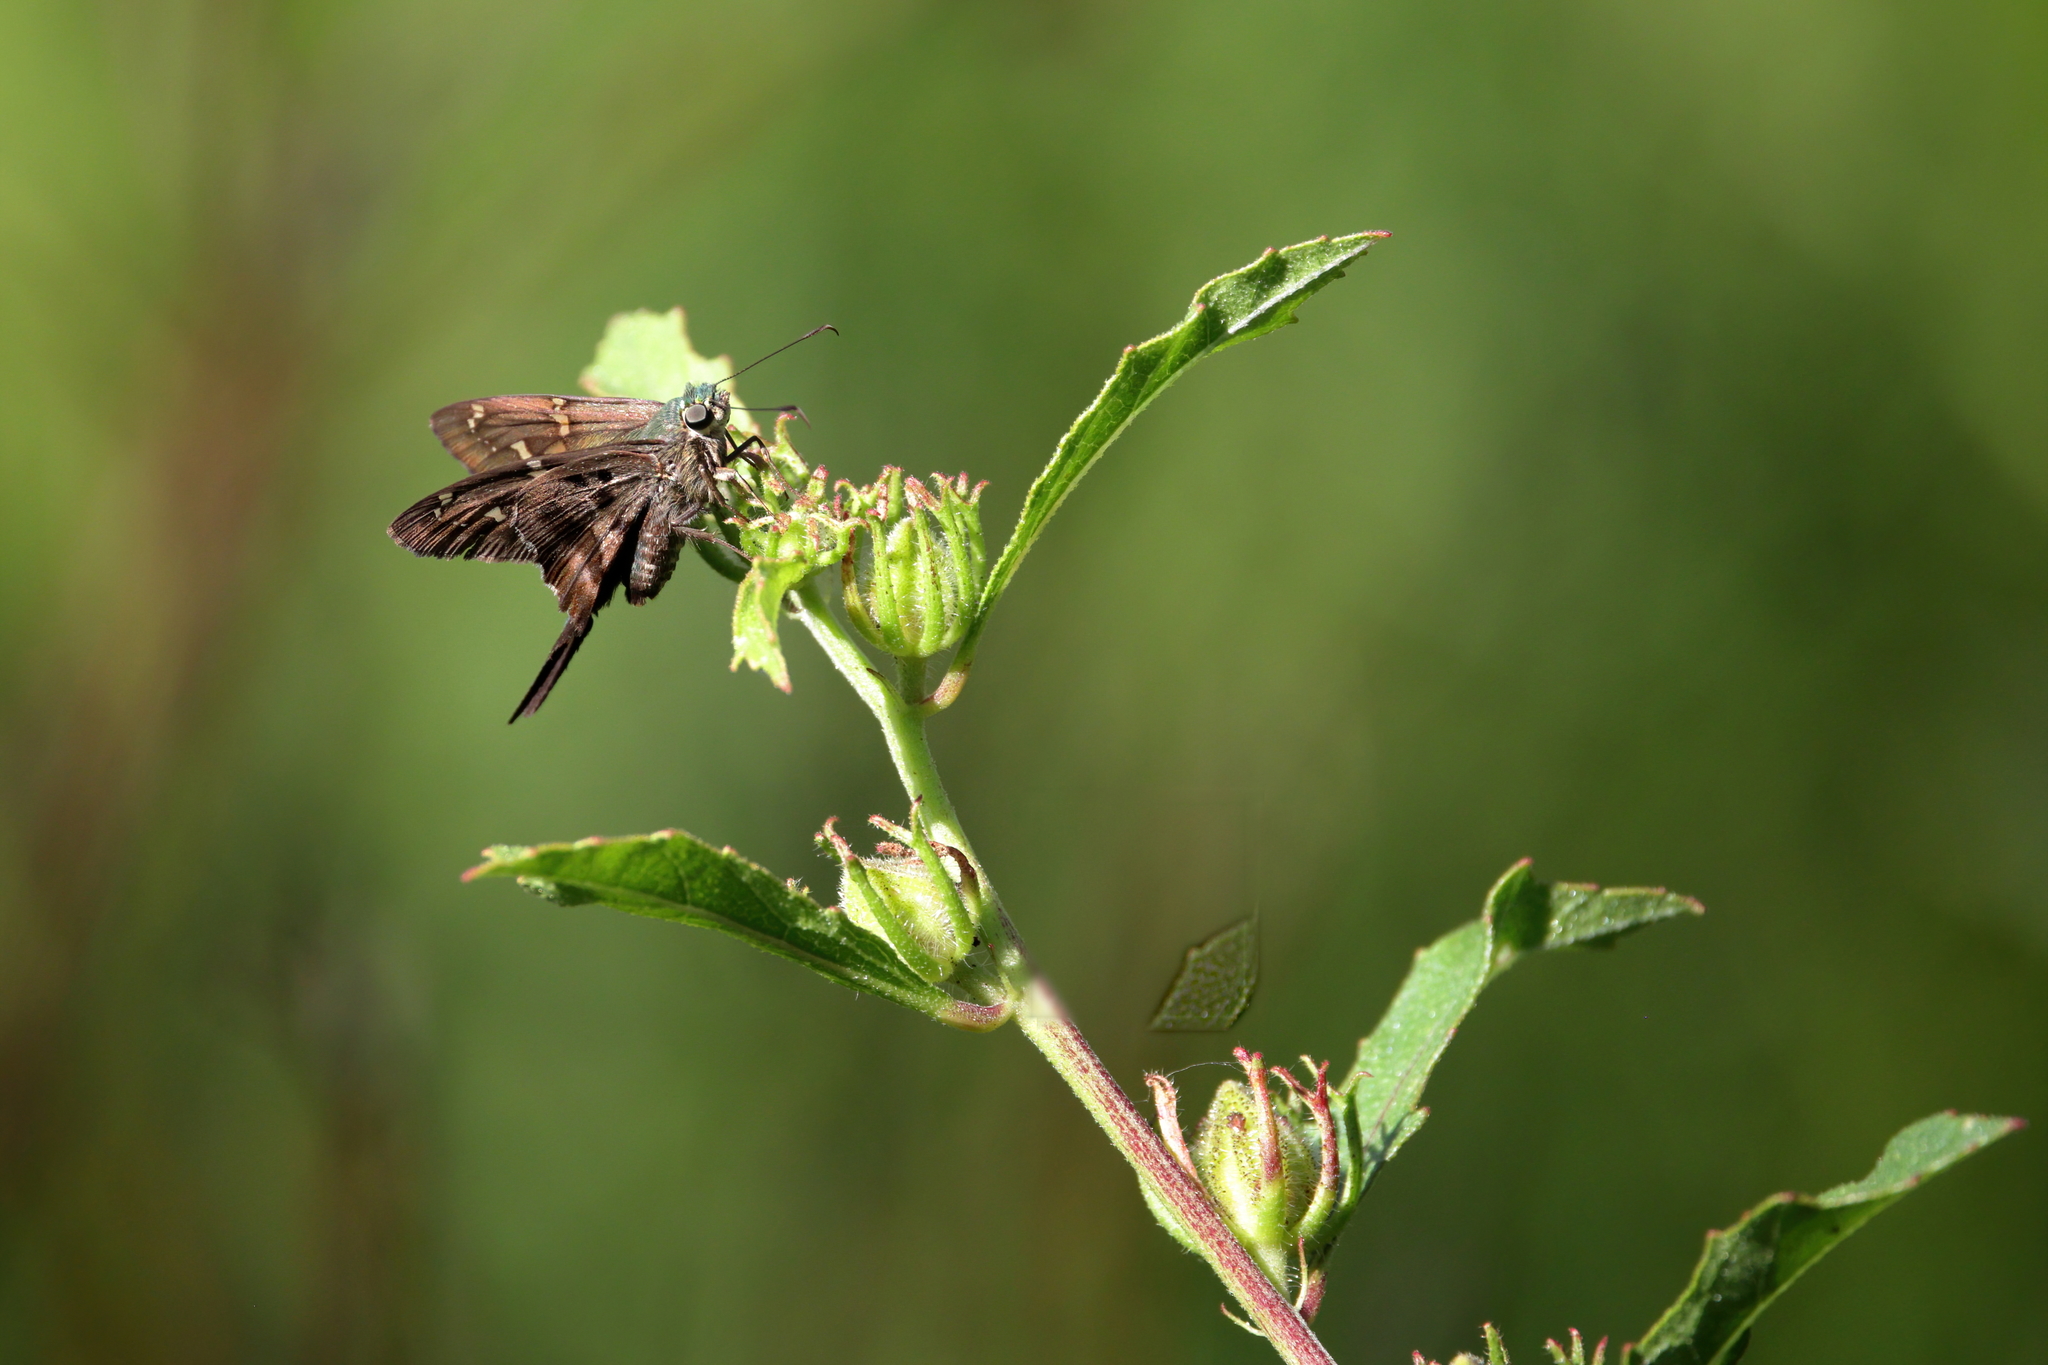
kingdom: Animalia
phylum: Arthropoda
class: Insecta
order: Lepidoptera
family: Hesperiidae
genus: Urbanus
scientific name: Urbanus proteus
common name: Long-tailed skipper
